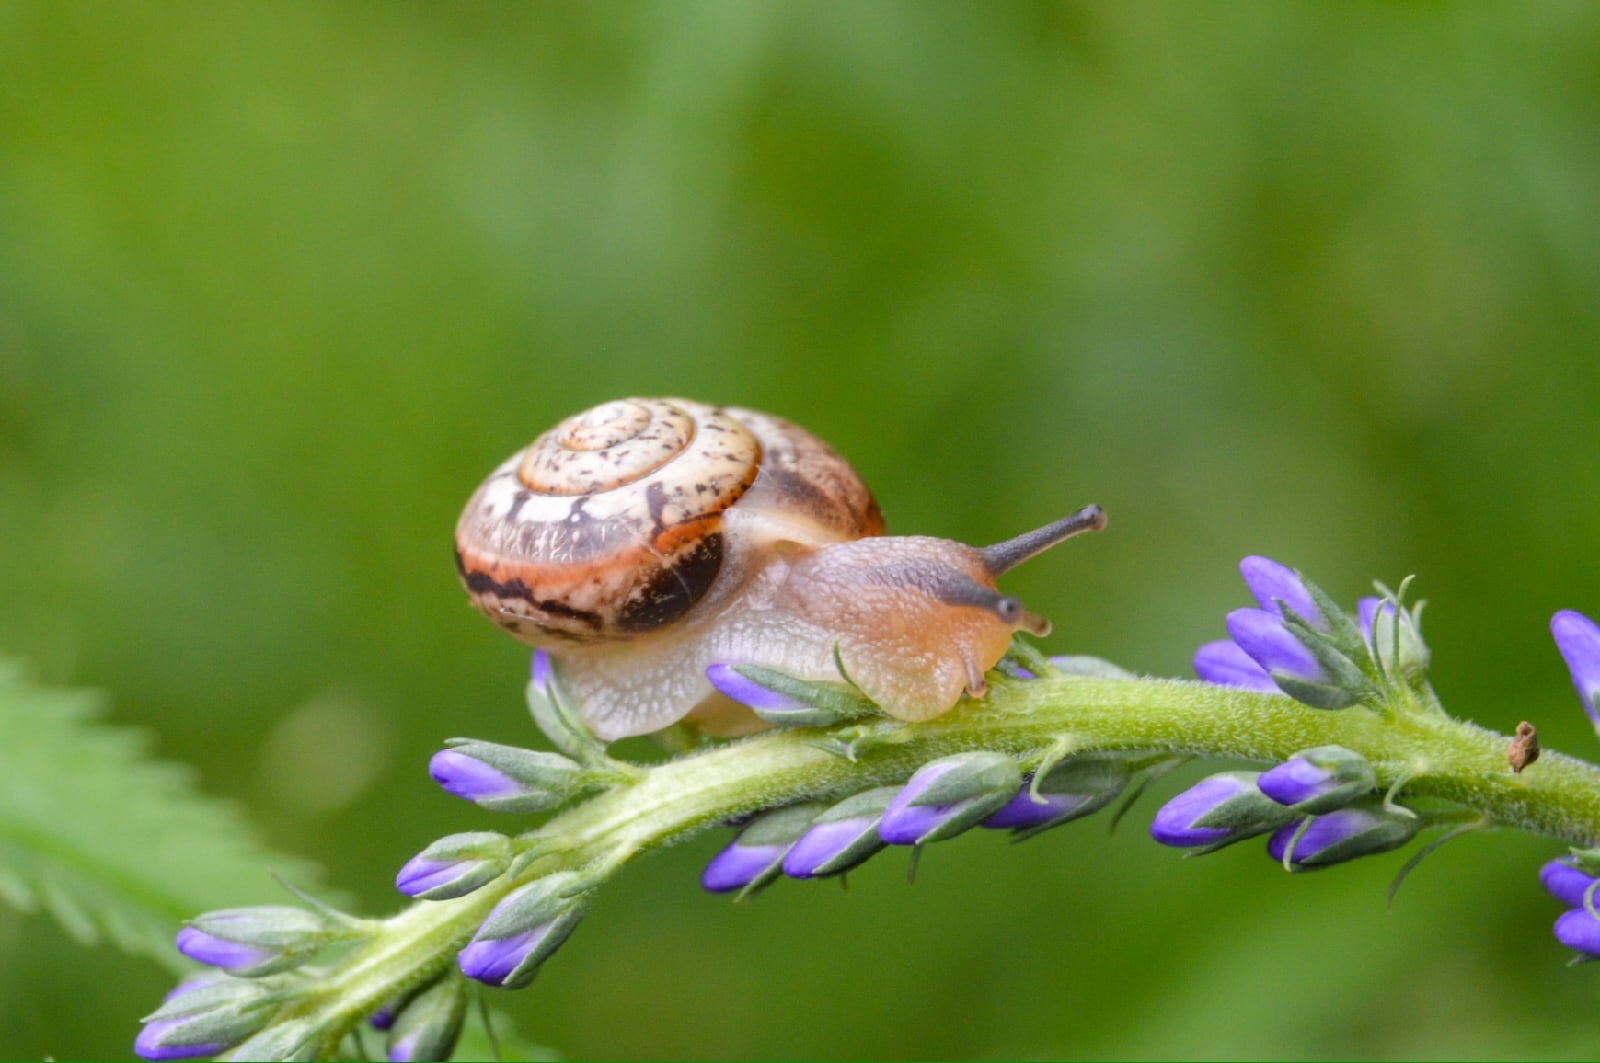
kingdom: Animalia
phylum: Mollusca
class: Gastropoda
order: Stylommatophora
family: Camaenidae
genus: Fruticicola
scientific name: Fruticicola fruticum
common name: Bush snail
